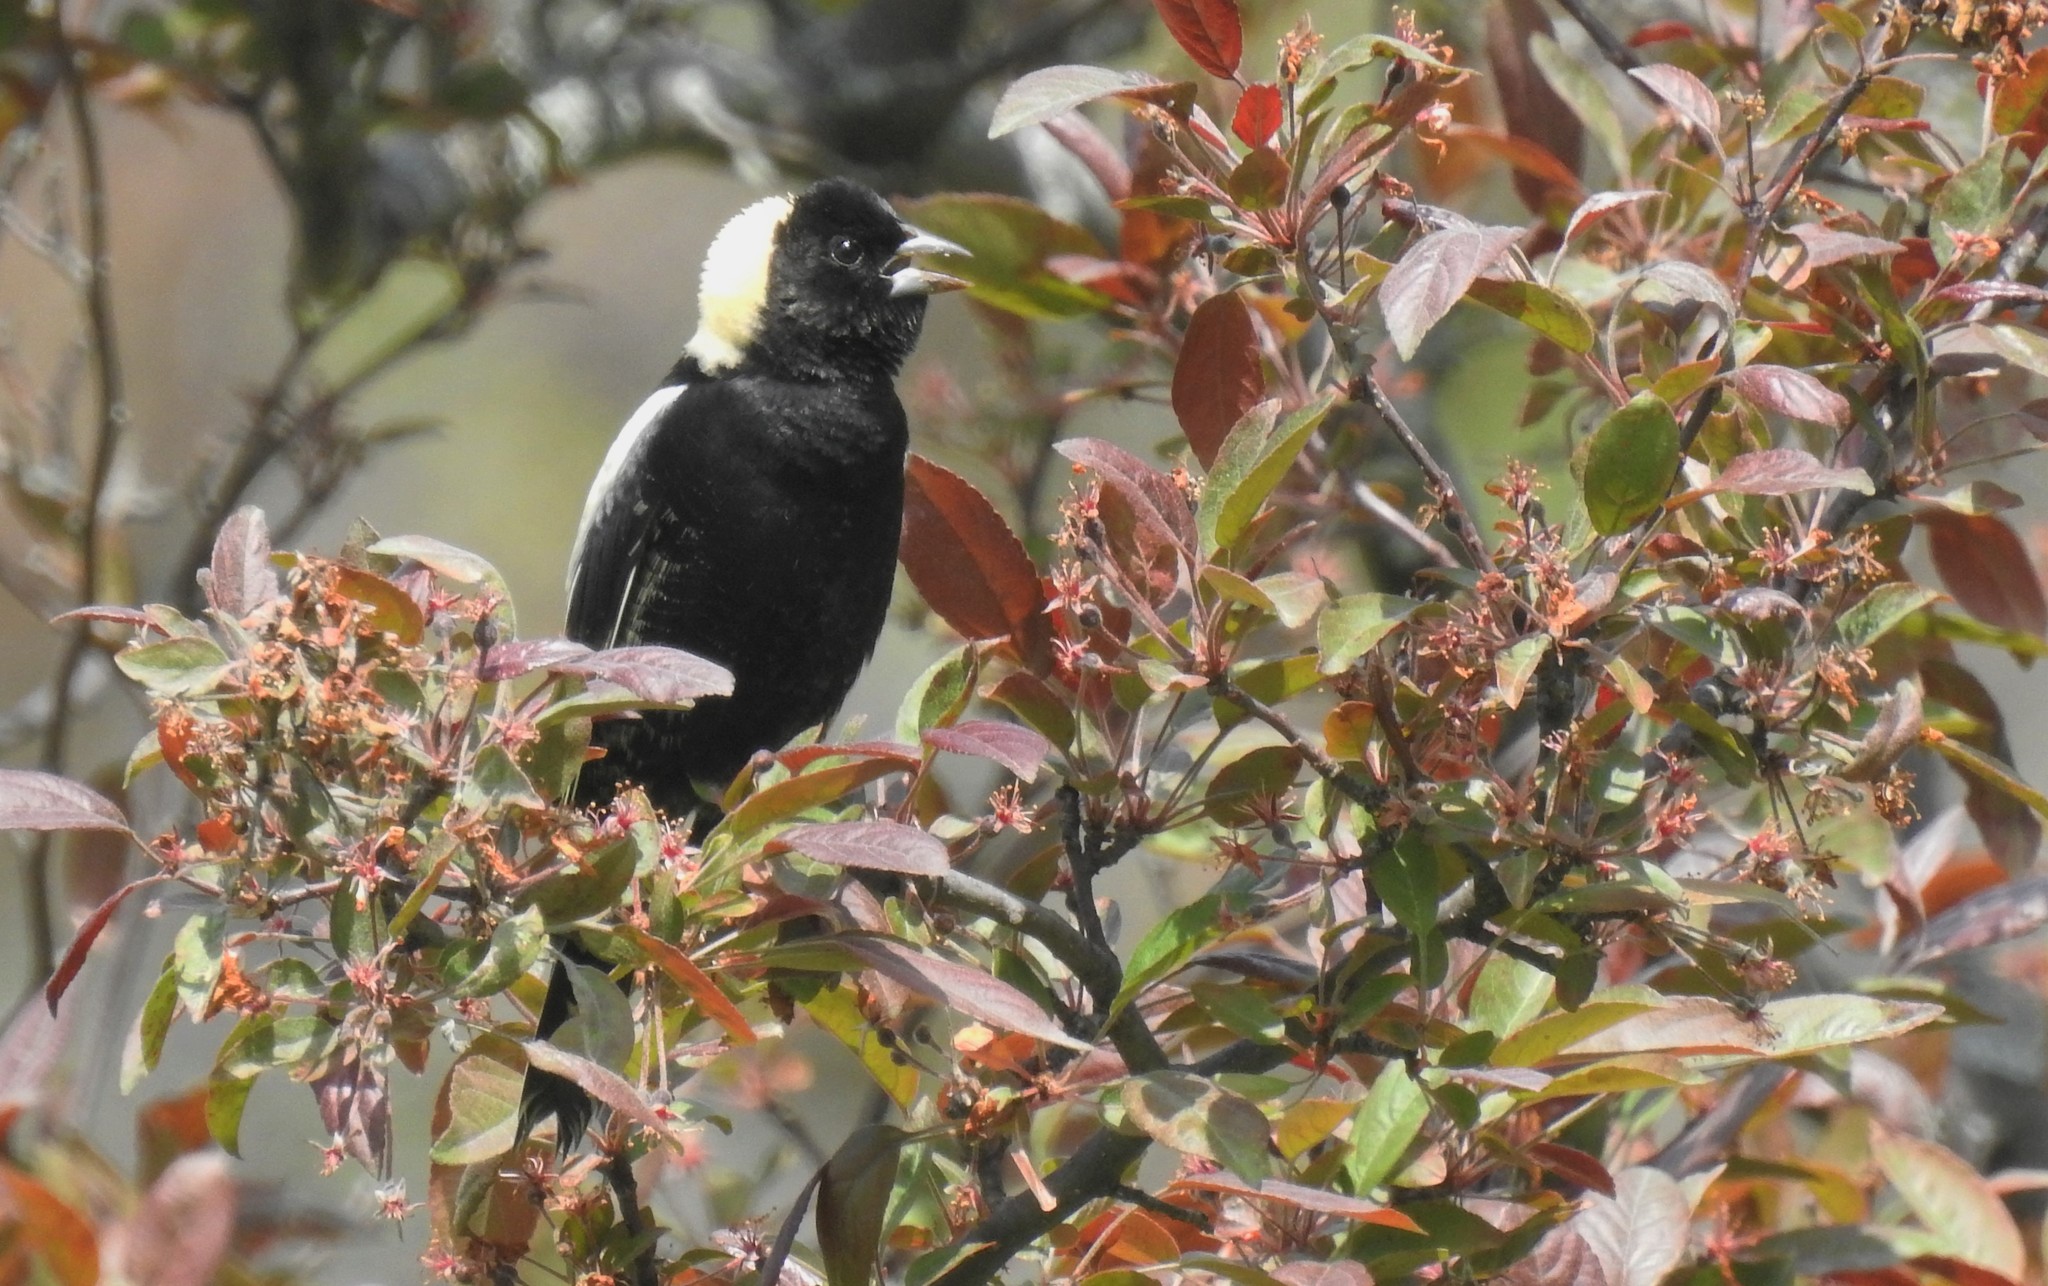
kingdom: Animalia
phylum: Chordata
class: Aves
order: Passeriformes
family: Icteridae
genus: Dolichonyx
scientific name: Dolichonyx oryzivorus
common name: Bobolink
